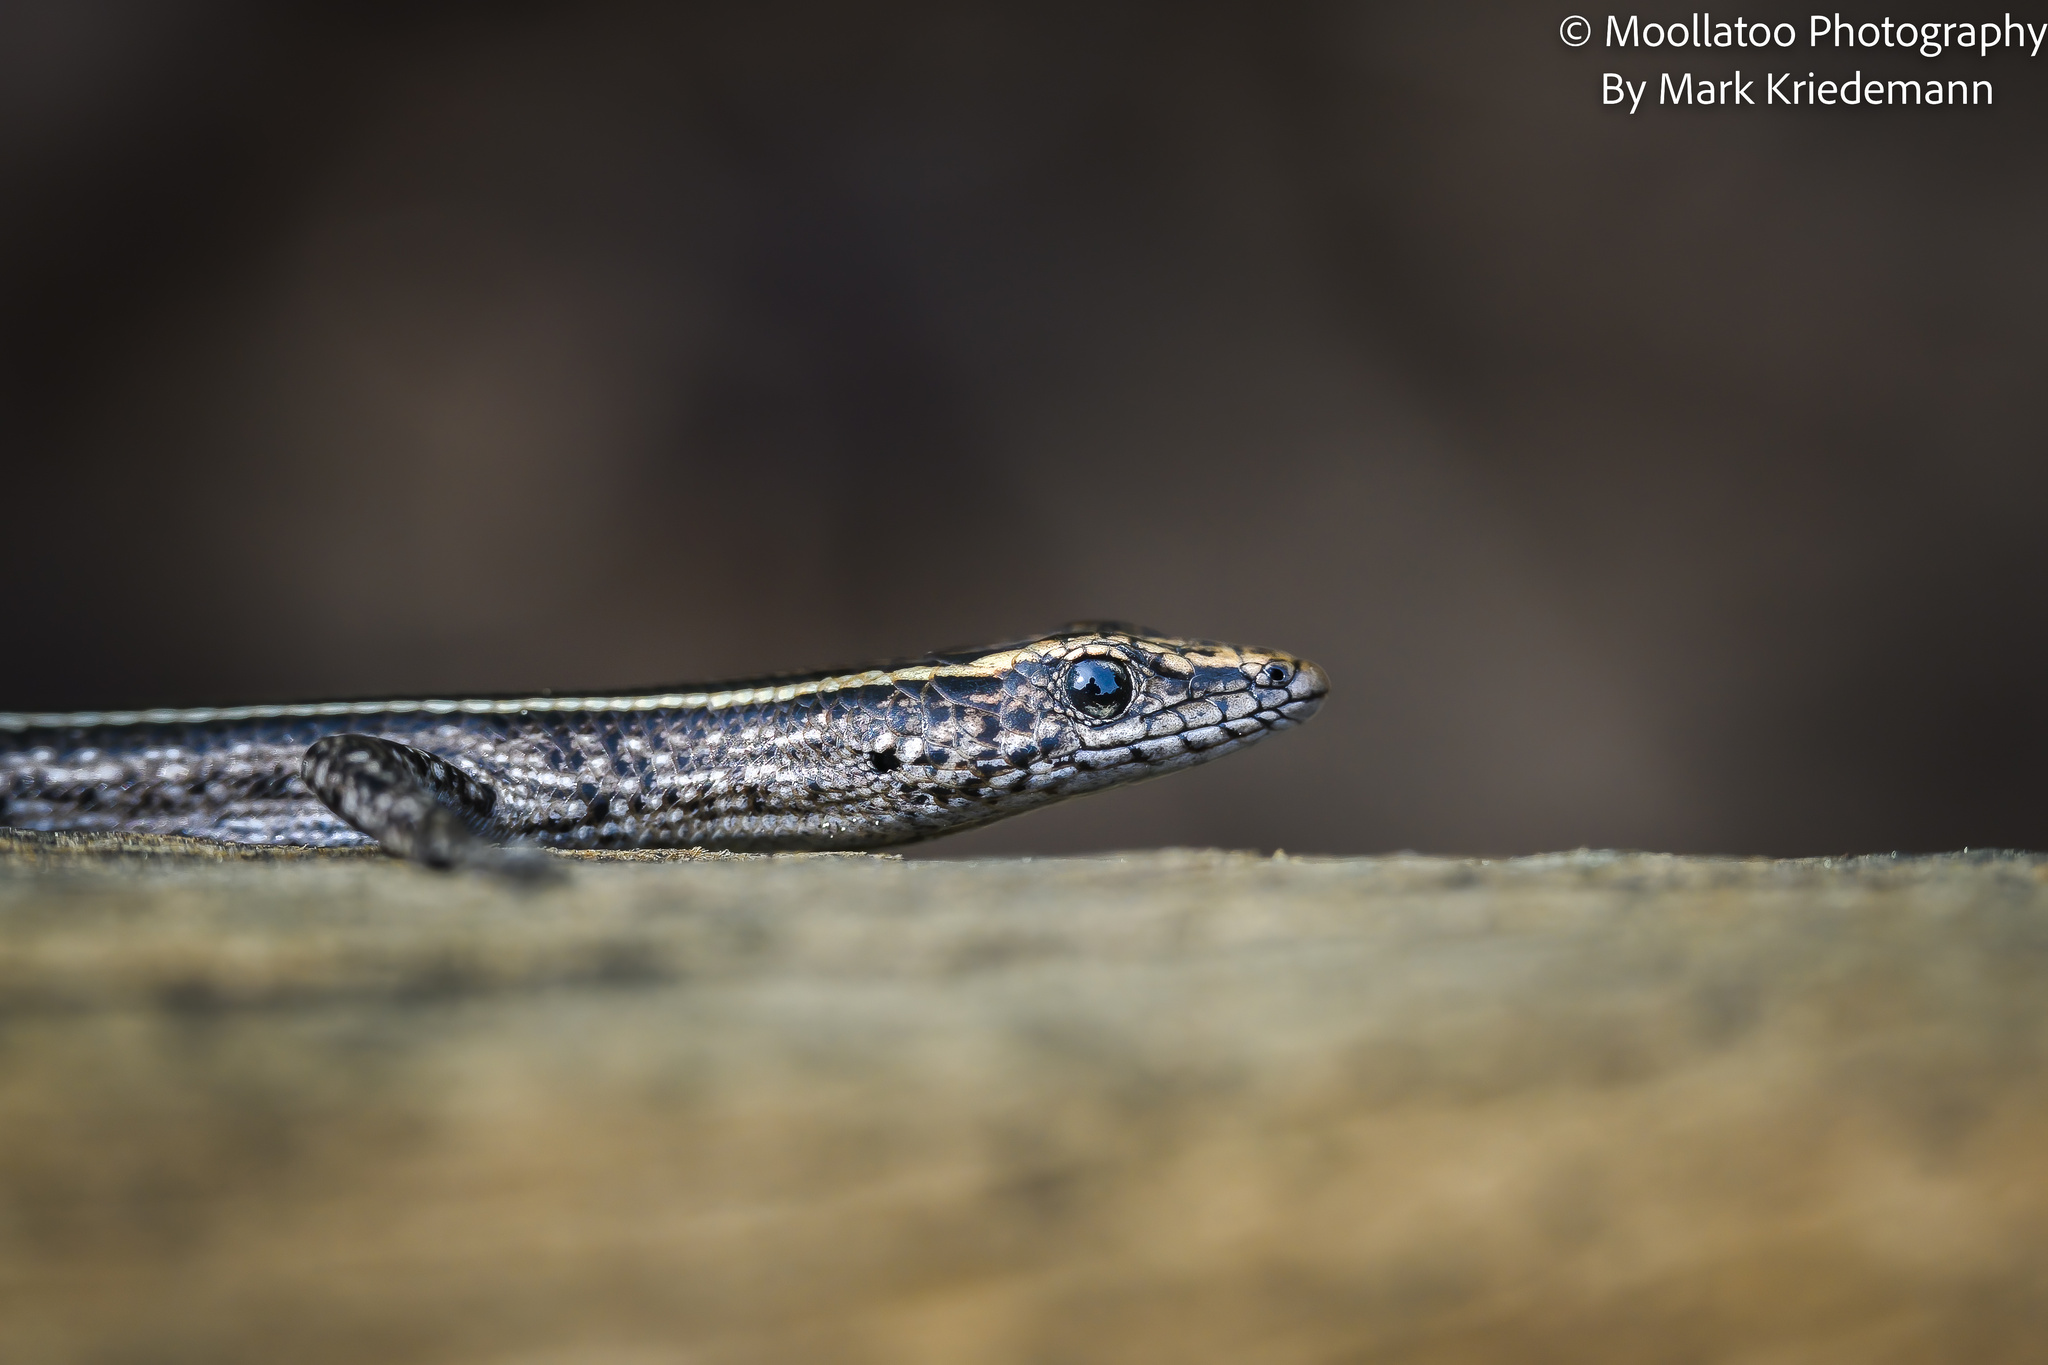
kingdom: Animalia
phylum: Chordata
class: Squamata
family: Scincidae
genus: Cryptoblepharus
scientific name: Cryptoblepharus pulcher
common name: Elegant snake-eyed skink
